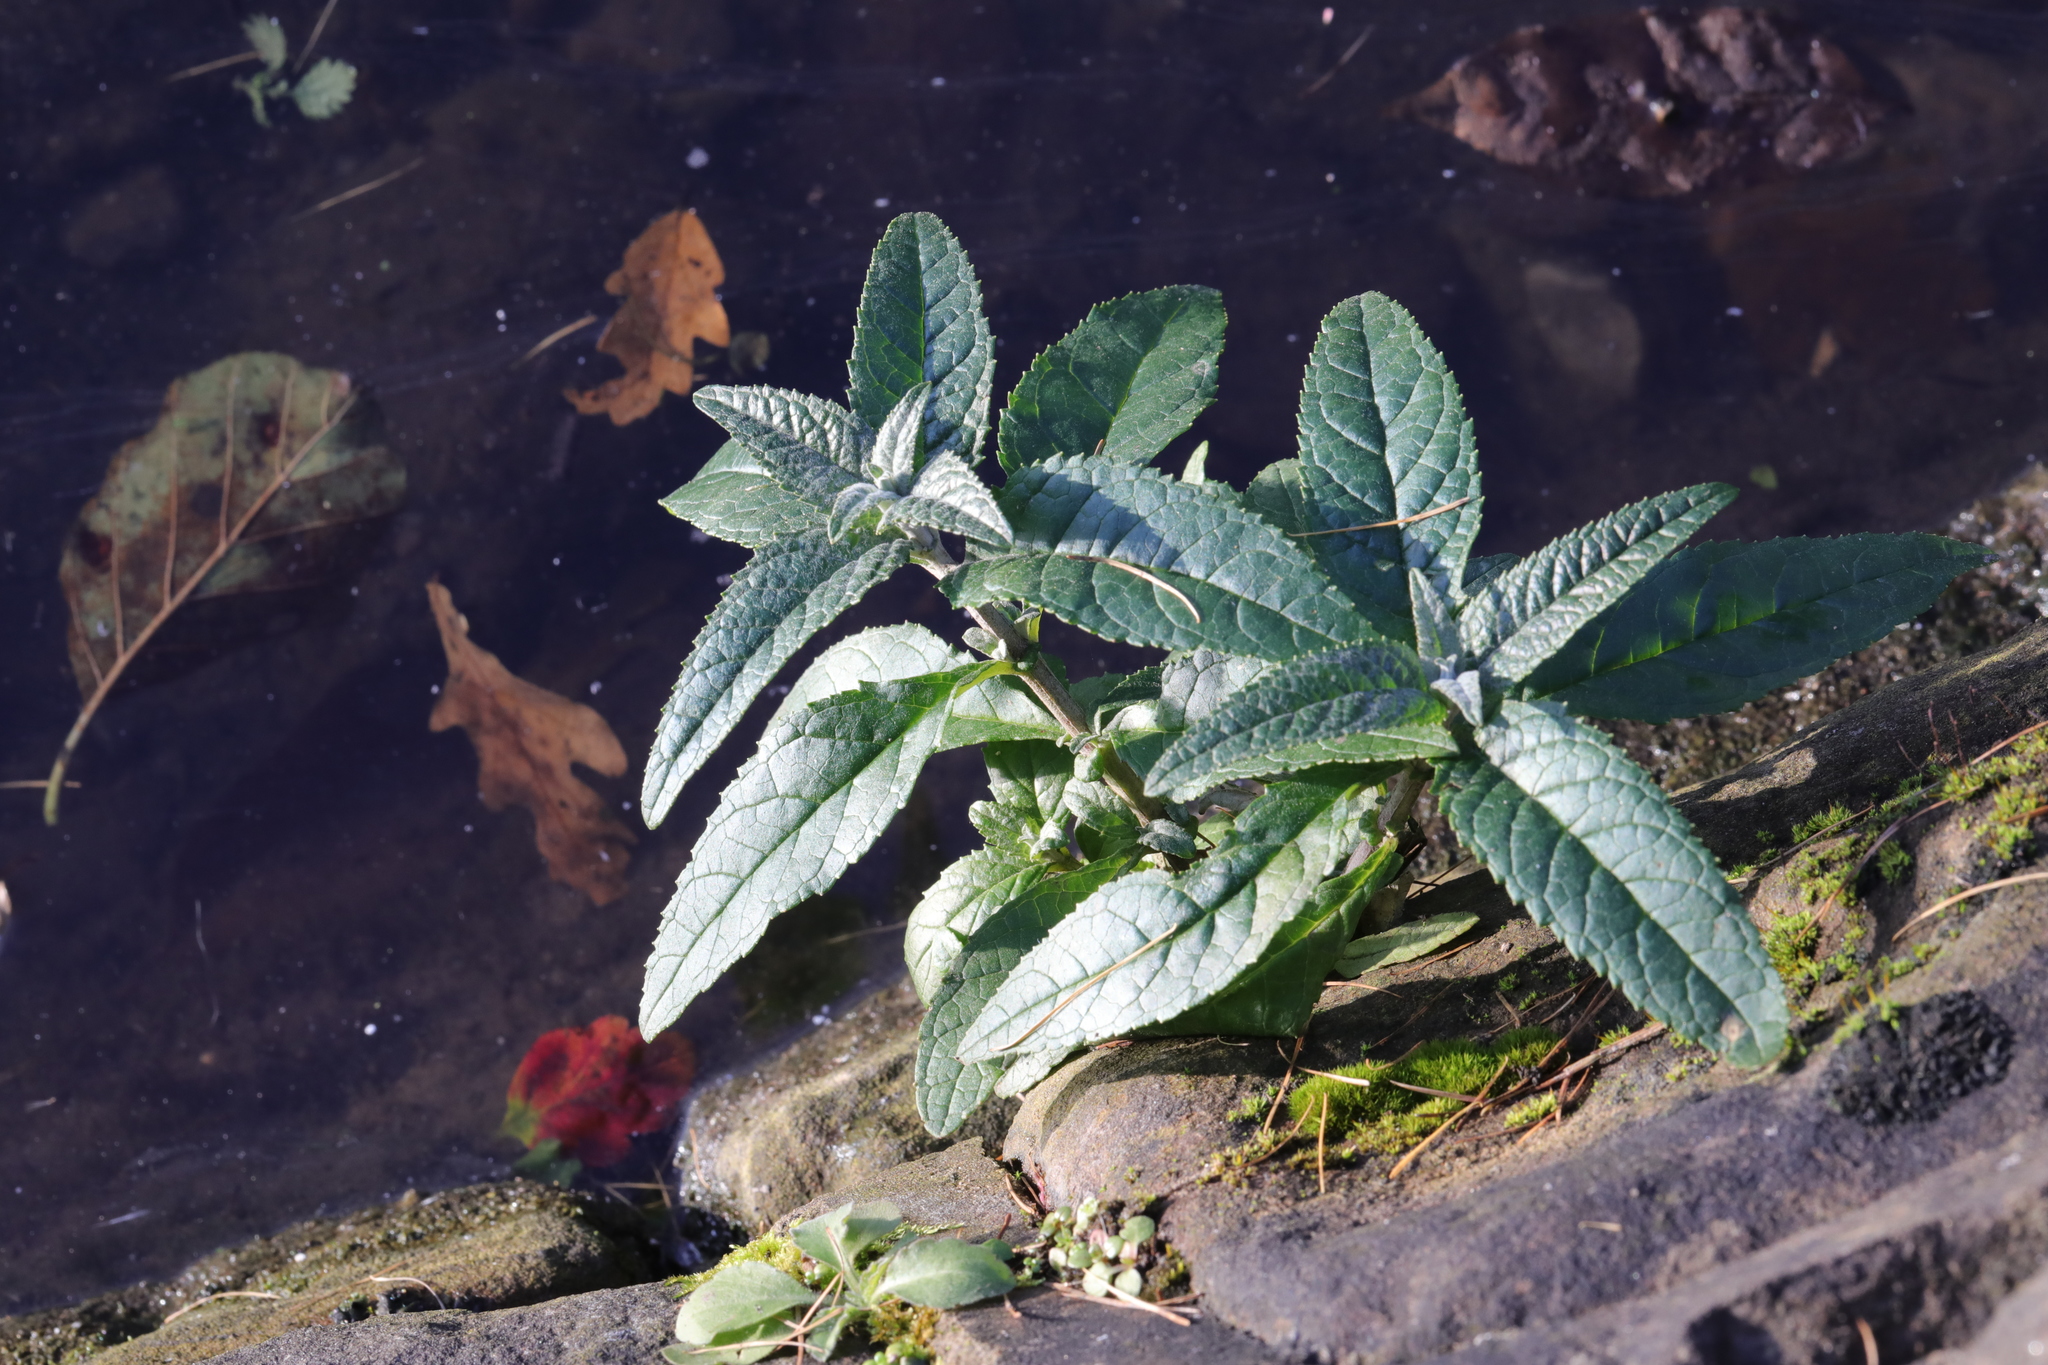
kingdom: Plantae
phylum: Tracheophyta
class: Magnoliopsida
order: Lamiales
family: Scrophulariaceae
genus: Buddleja
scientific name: Buddleja davidii
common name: Butterfly-bush
